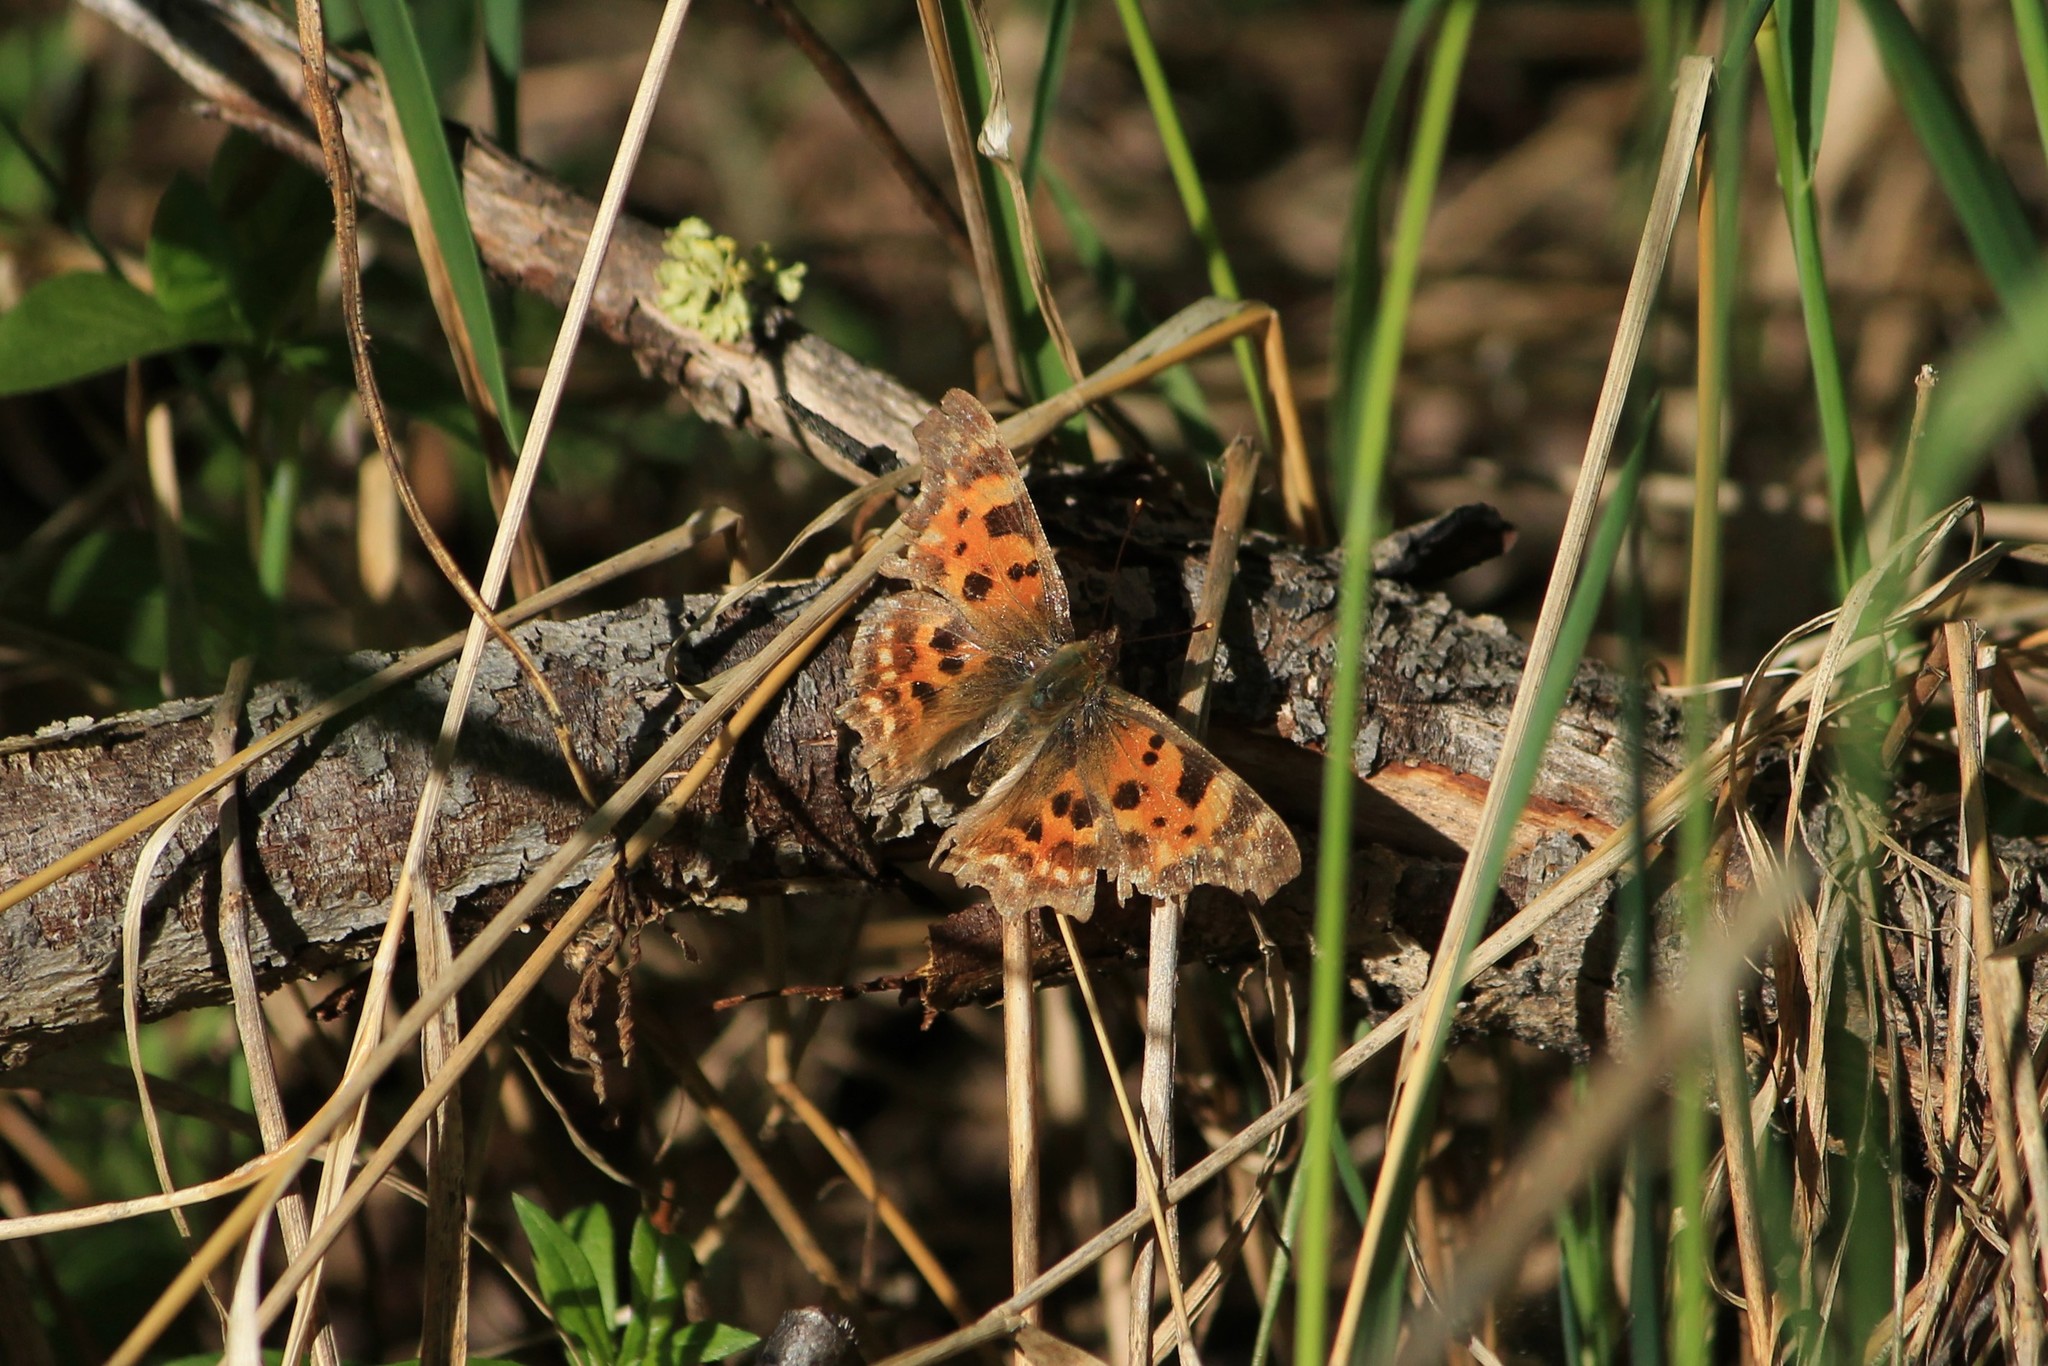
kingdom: Animalia
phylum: Arthropoda
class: Insecta
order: Lepidoptera
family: Nymphalidae
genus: Polygonia
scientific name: Polygonia c-album
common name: Comma
